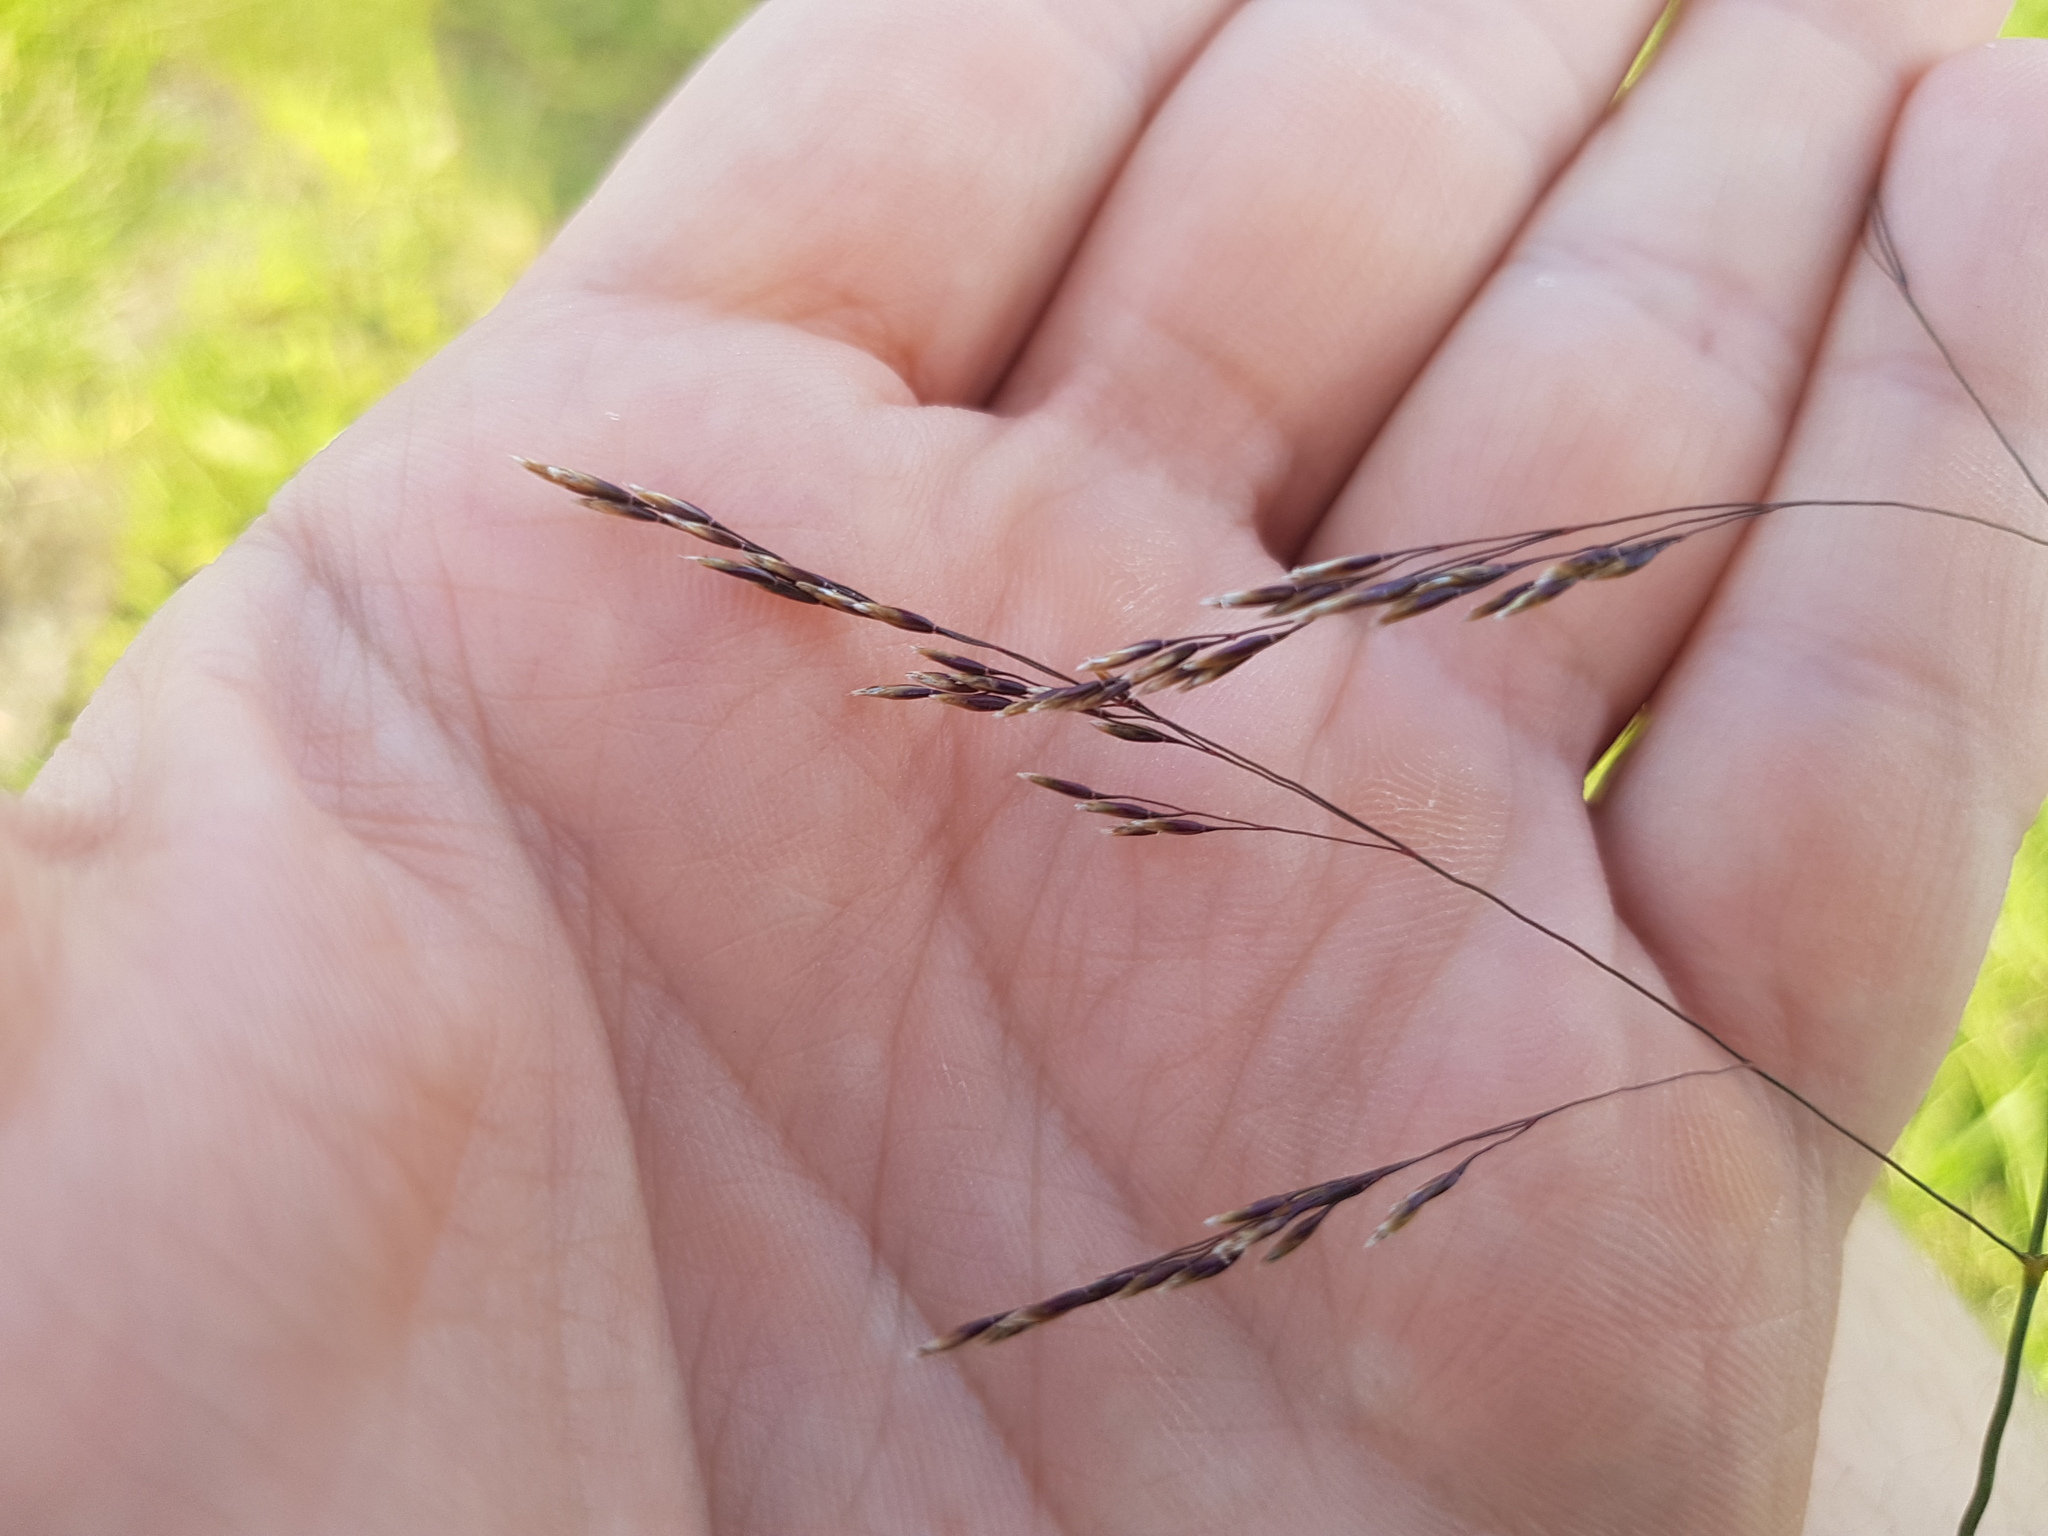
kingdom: Plantae
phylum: Tracheophyta
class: Liliopsida
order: Poales
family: Poaceae
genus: Deschampsia
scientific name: Deschampsia cespitosa
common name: Tufted hair-grass
